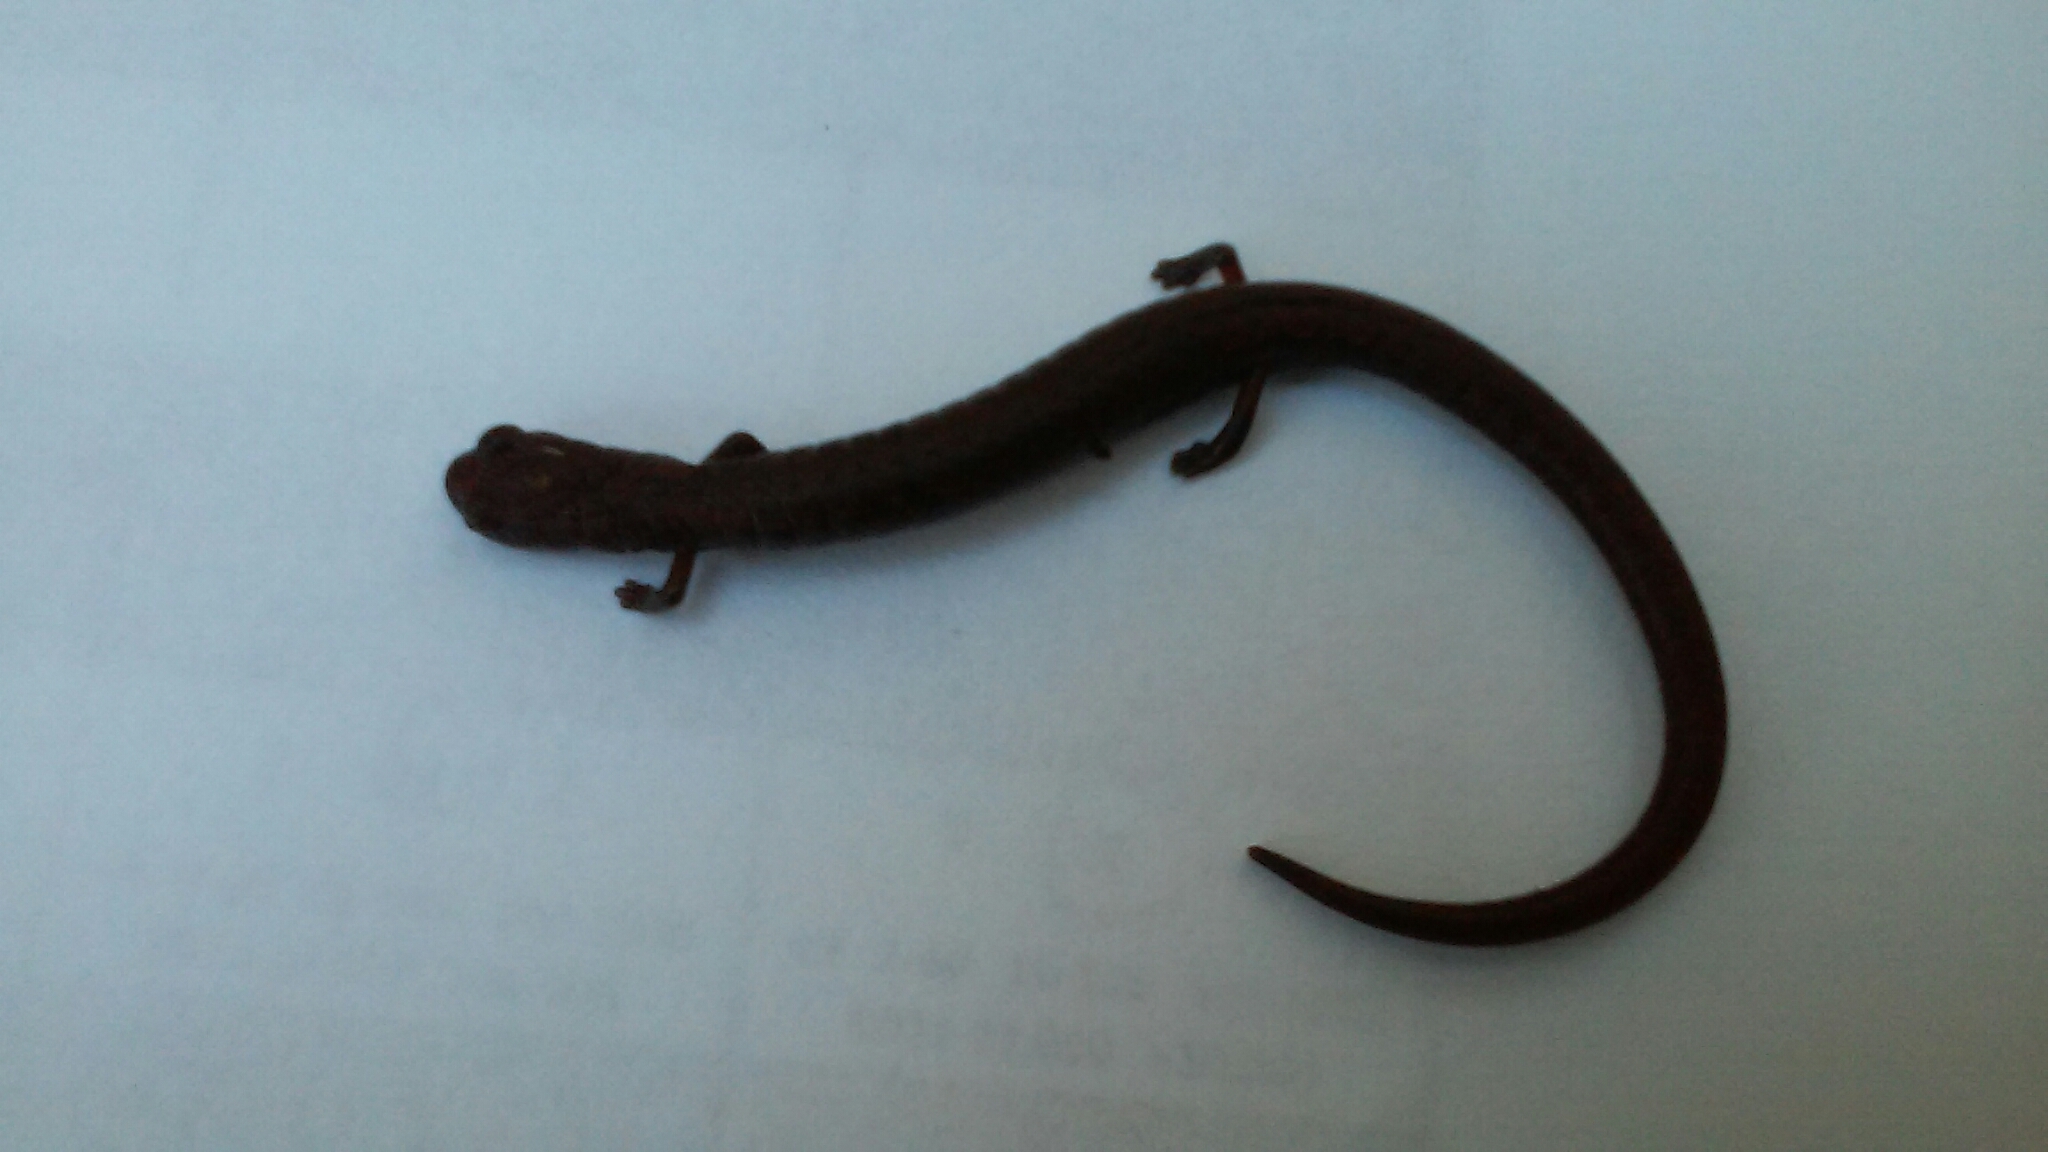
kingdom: Animalia
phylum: Chordata
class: Amphibia
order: Caudata
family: Plethodontidae
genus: Batrachoseps
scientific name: Batrachoseps attenuatus
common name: California slender salamander
